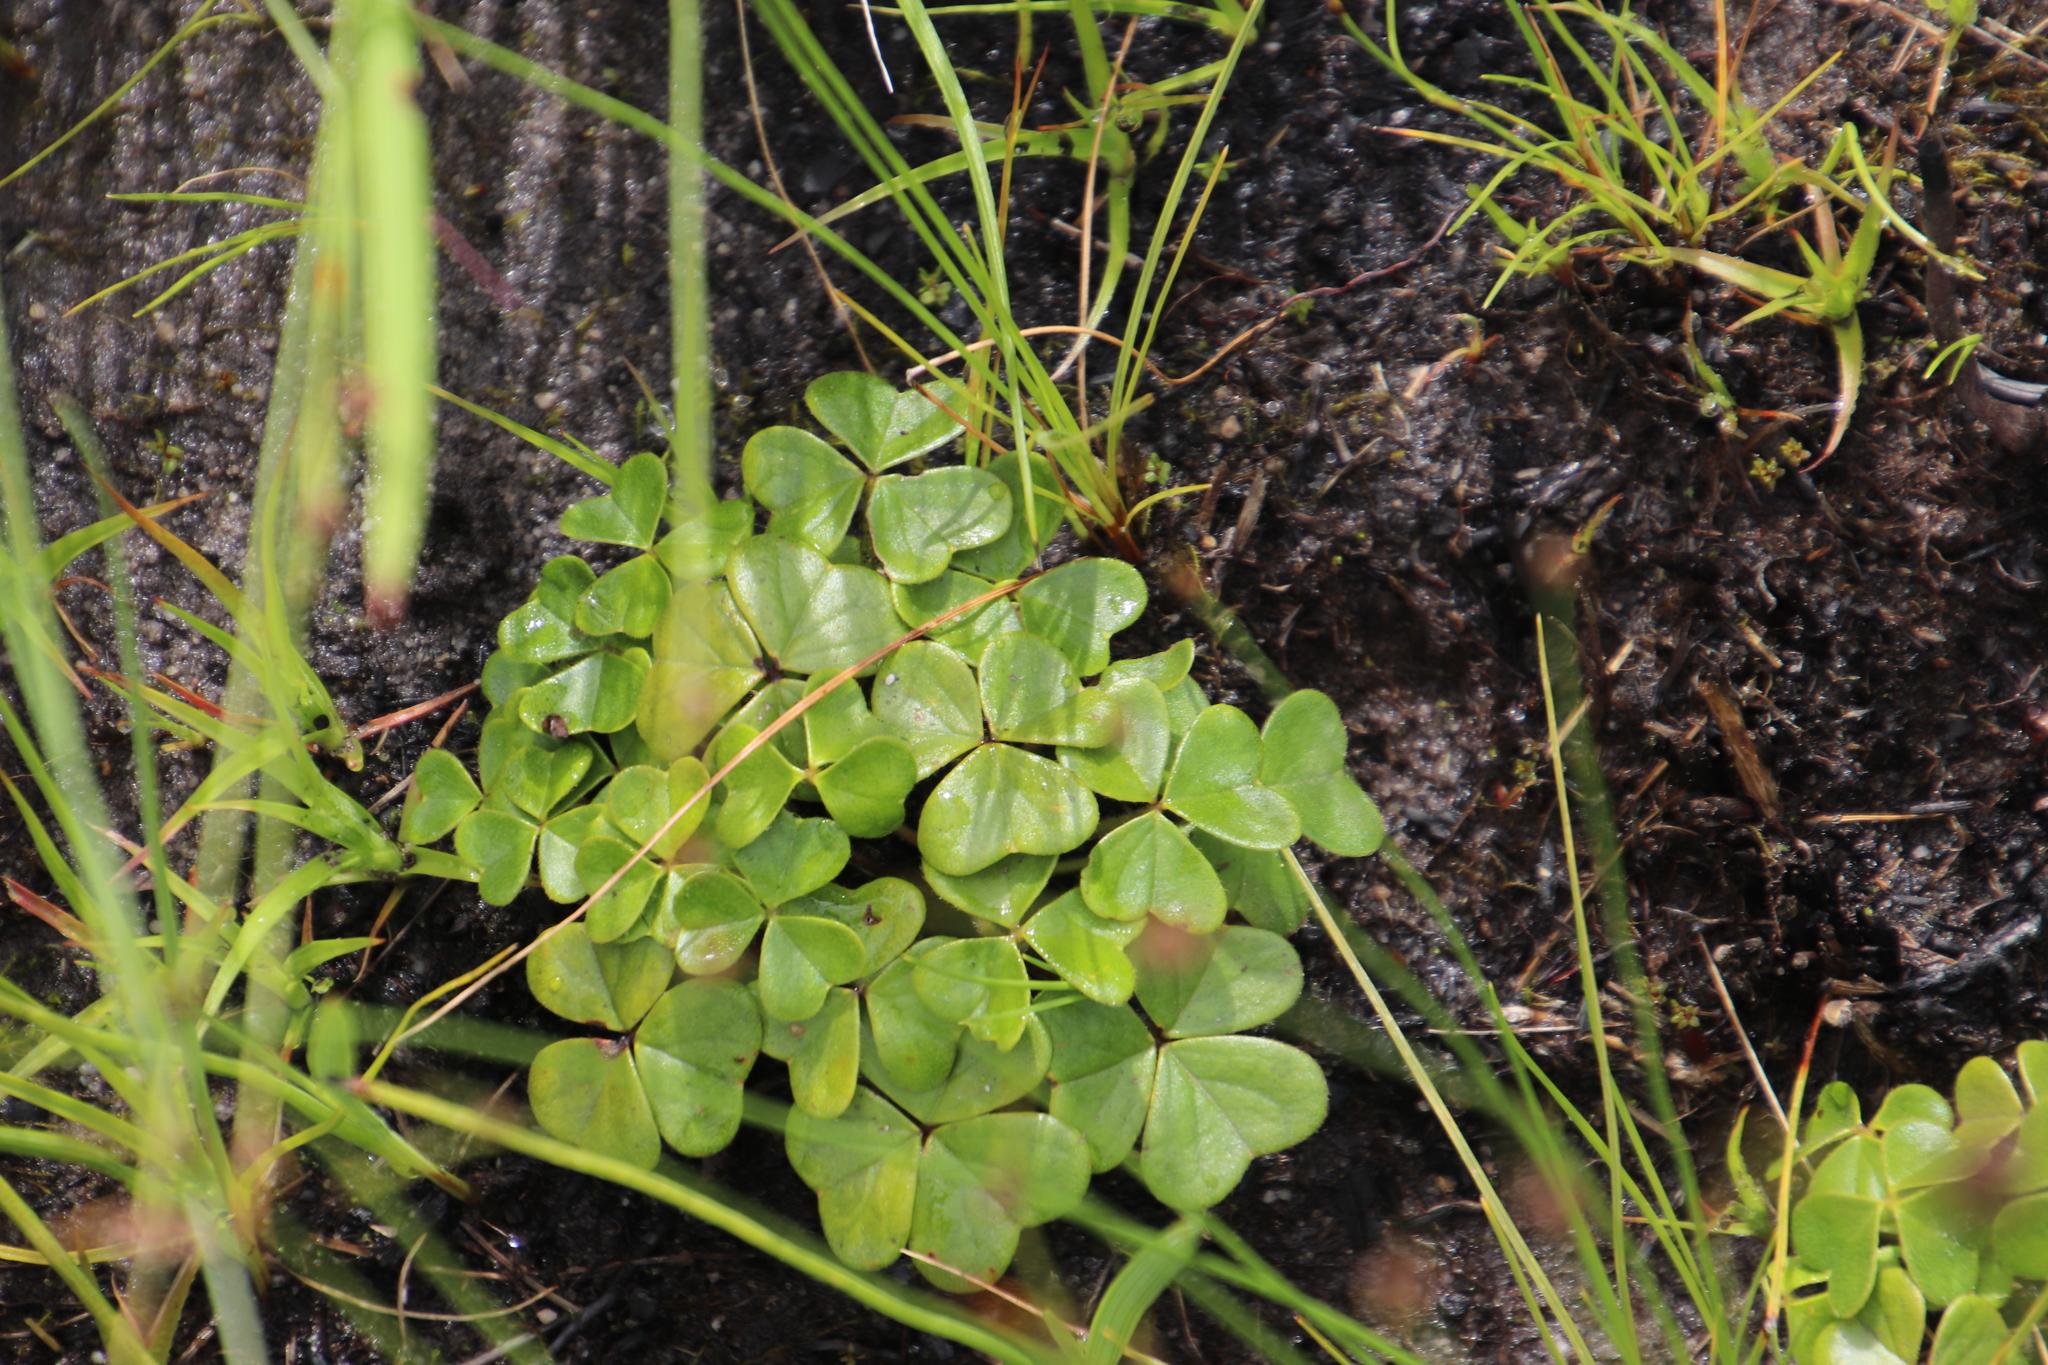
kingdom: Plantae
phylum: Tracheophyta
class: Magnoliopsida
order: Oxalidales
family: Oxalidaceae
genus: Oxalis
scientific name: Oxalis truncatula
